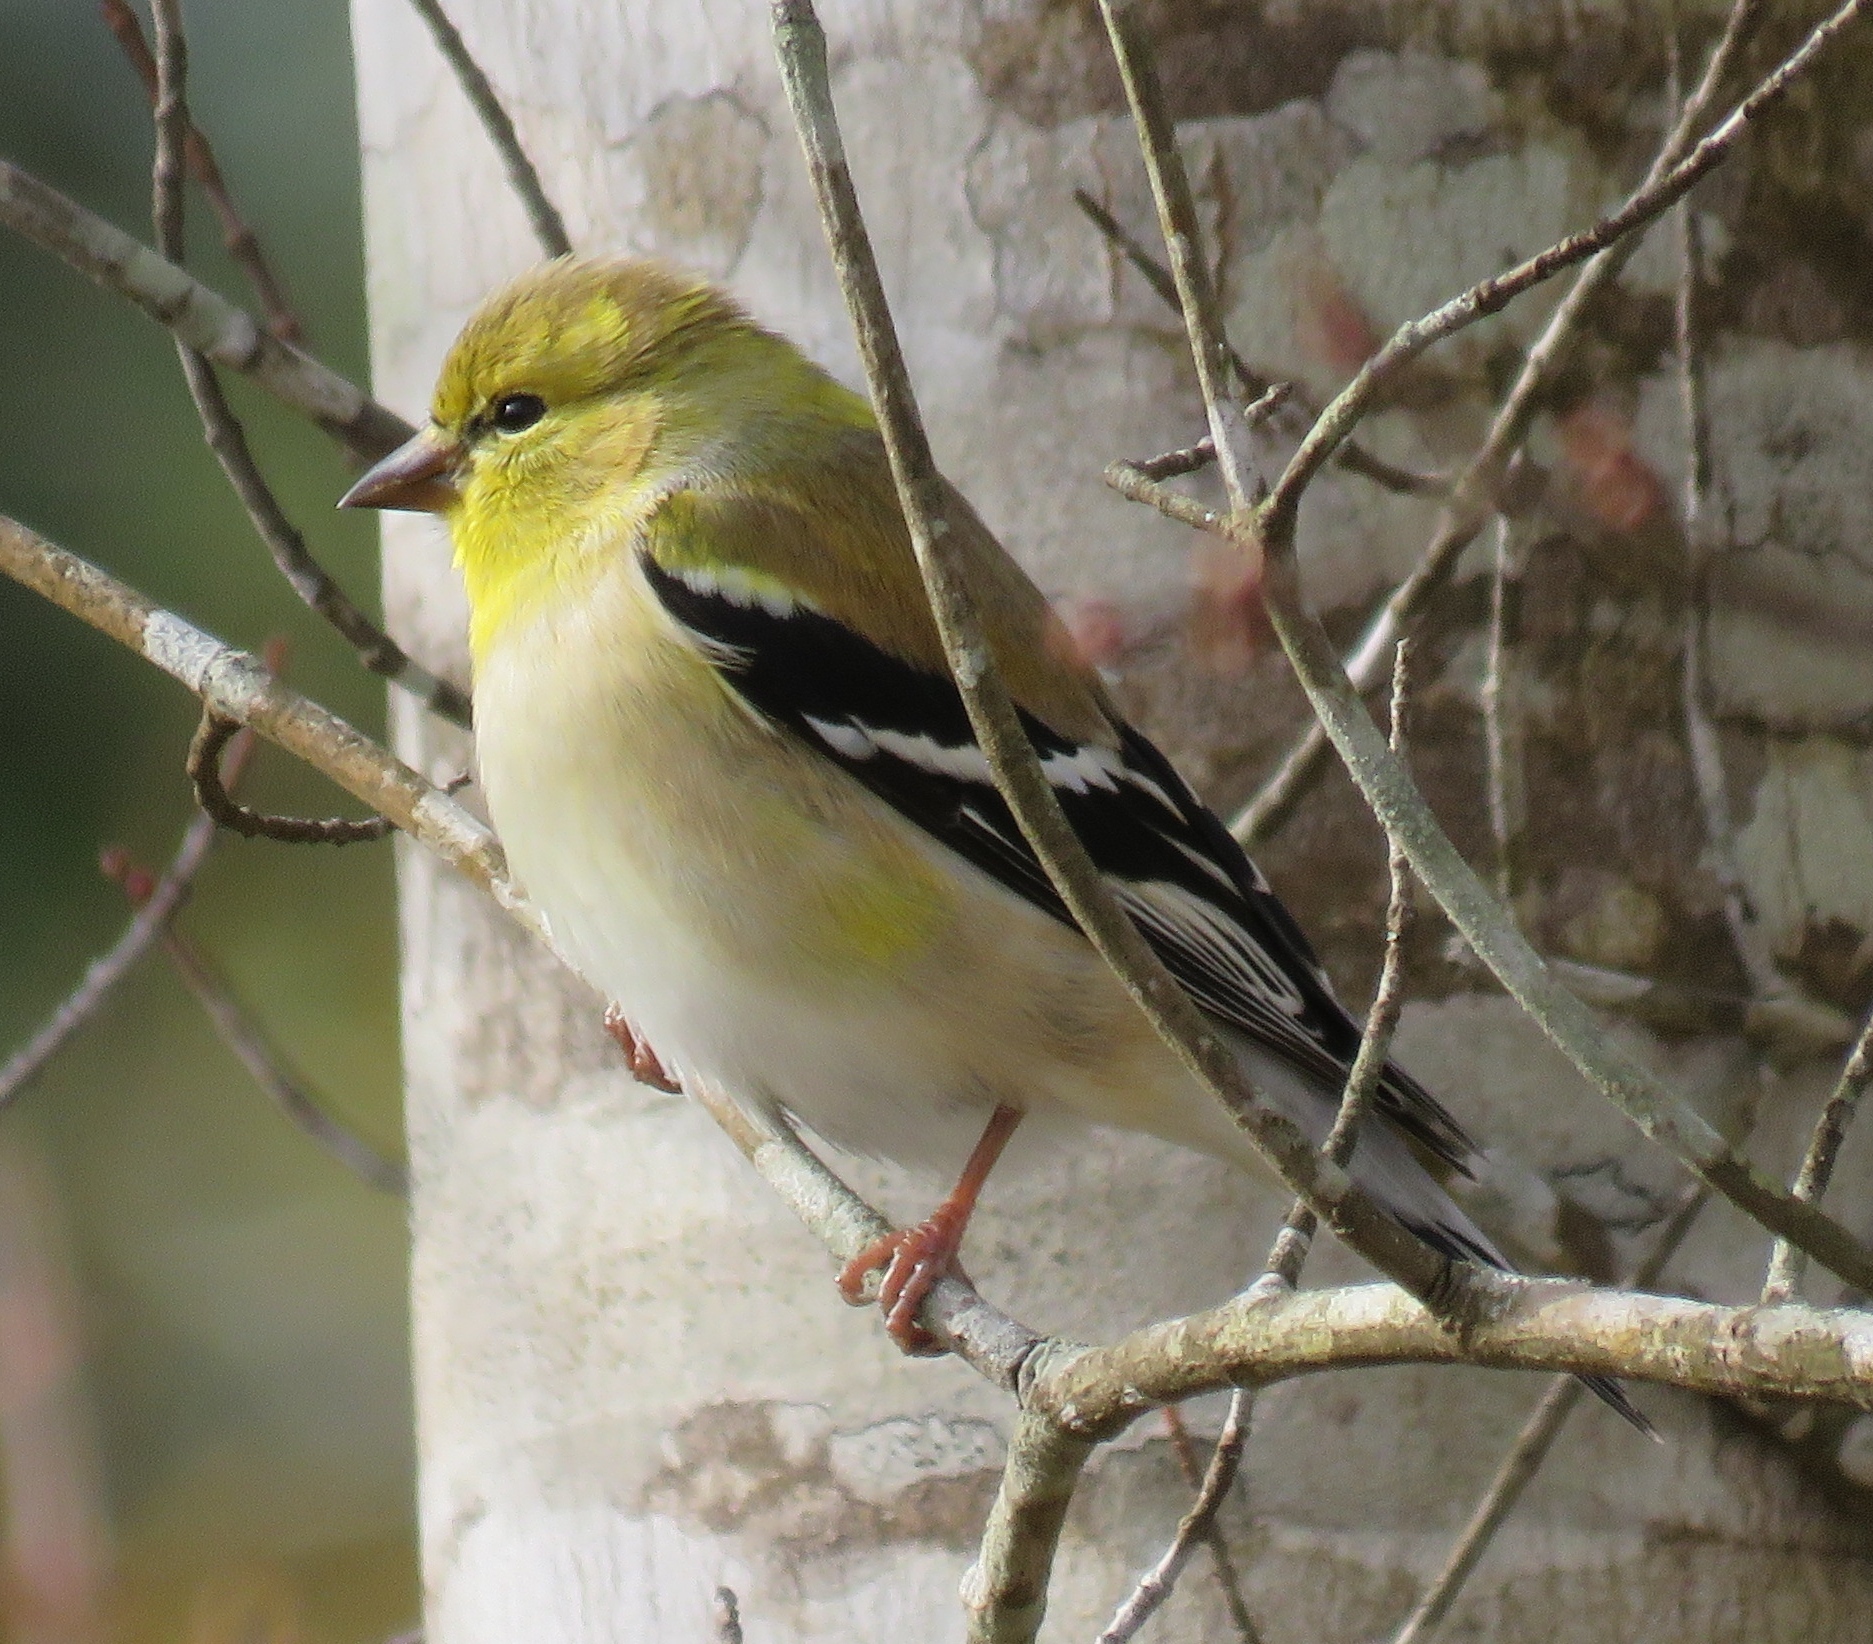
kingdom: Animalia
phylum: Chordata
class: Aves
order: Passeriformes
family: Fringillidae
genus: Spinus
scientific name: Spinus tristis
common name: American goldfinch
